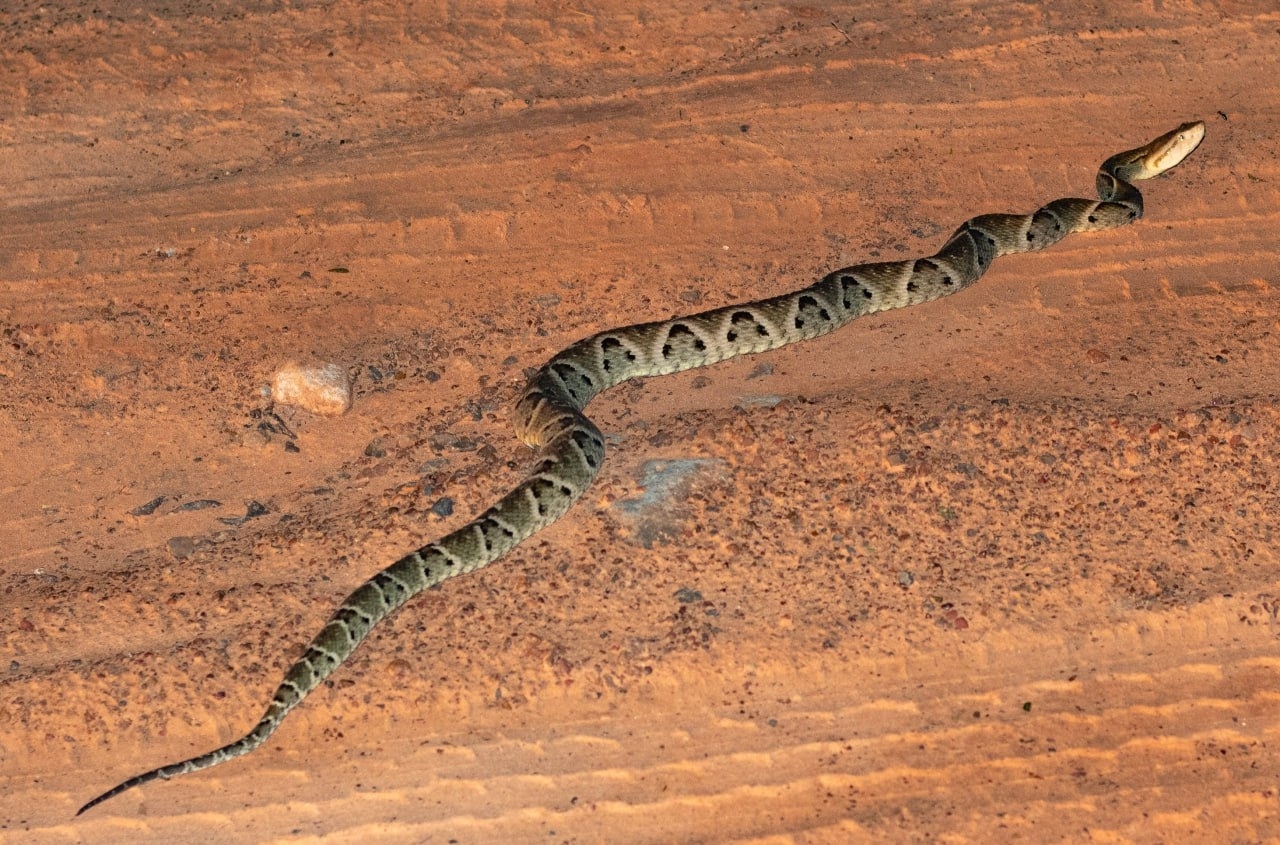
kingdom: Animalia
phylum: Chordata
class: Squamata
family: Viperidae
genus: Bothrops
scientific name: Bothrops moojeni
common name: Brazilian lancehead
